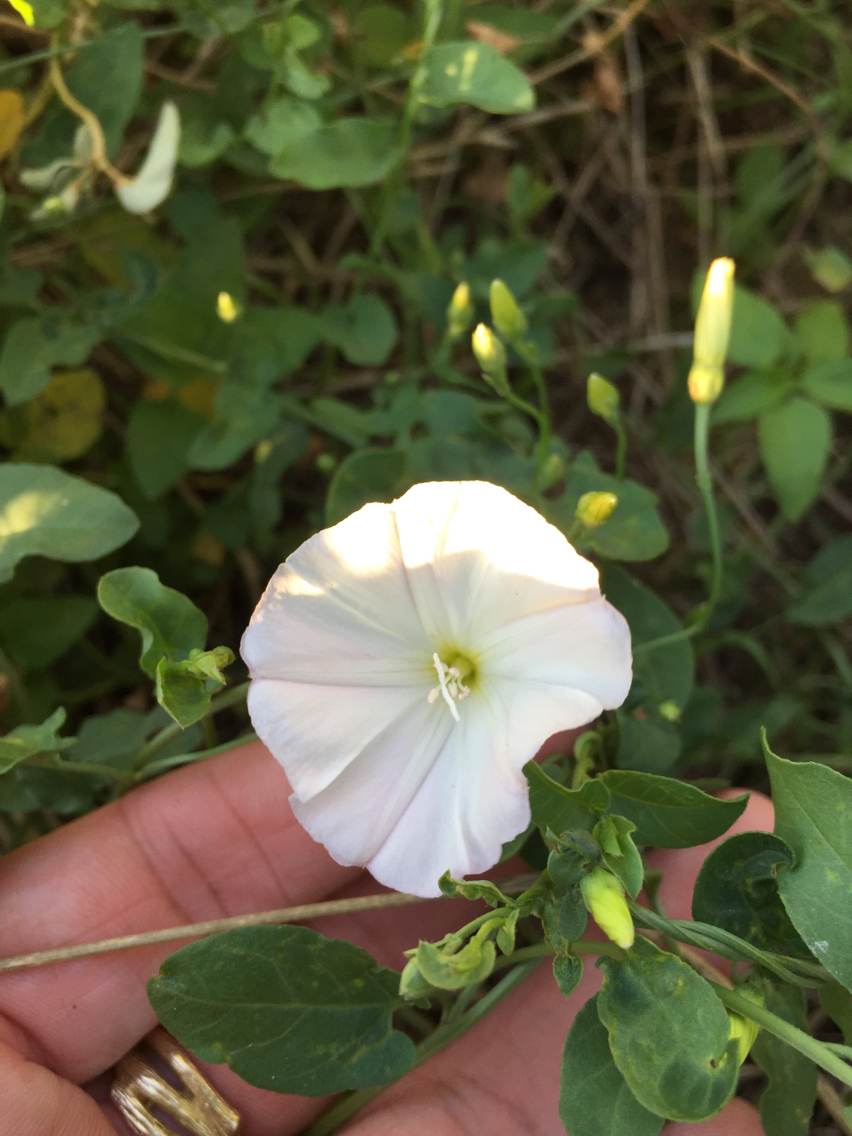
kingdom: Plantae
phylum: Tracheophyta
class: Magnoliopsida
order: Solanales
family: Convolvulaceae
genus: Convolvulus
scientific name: Convolvulus arvensis
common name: Field bindweed
